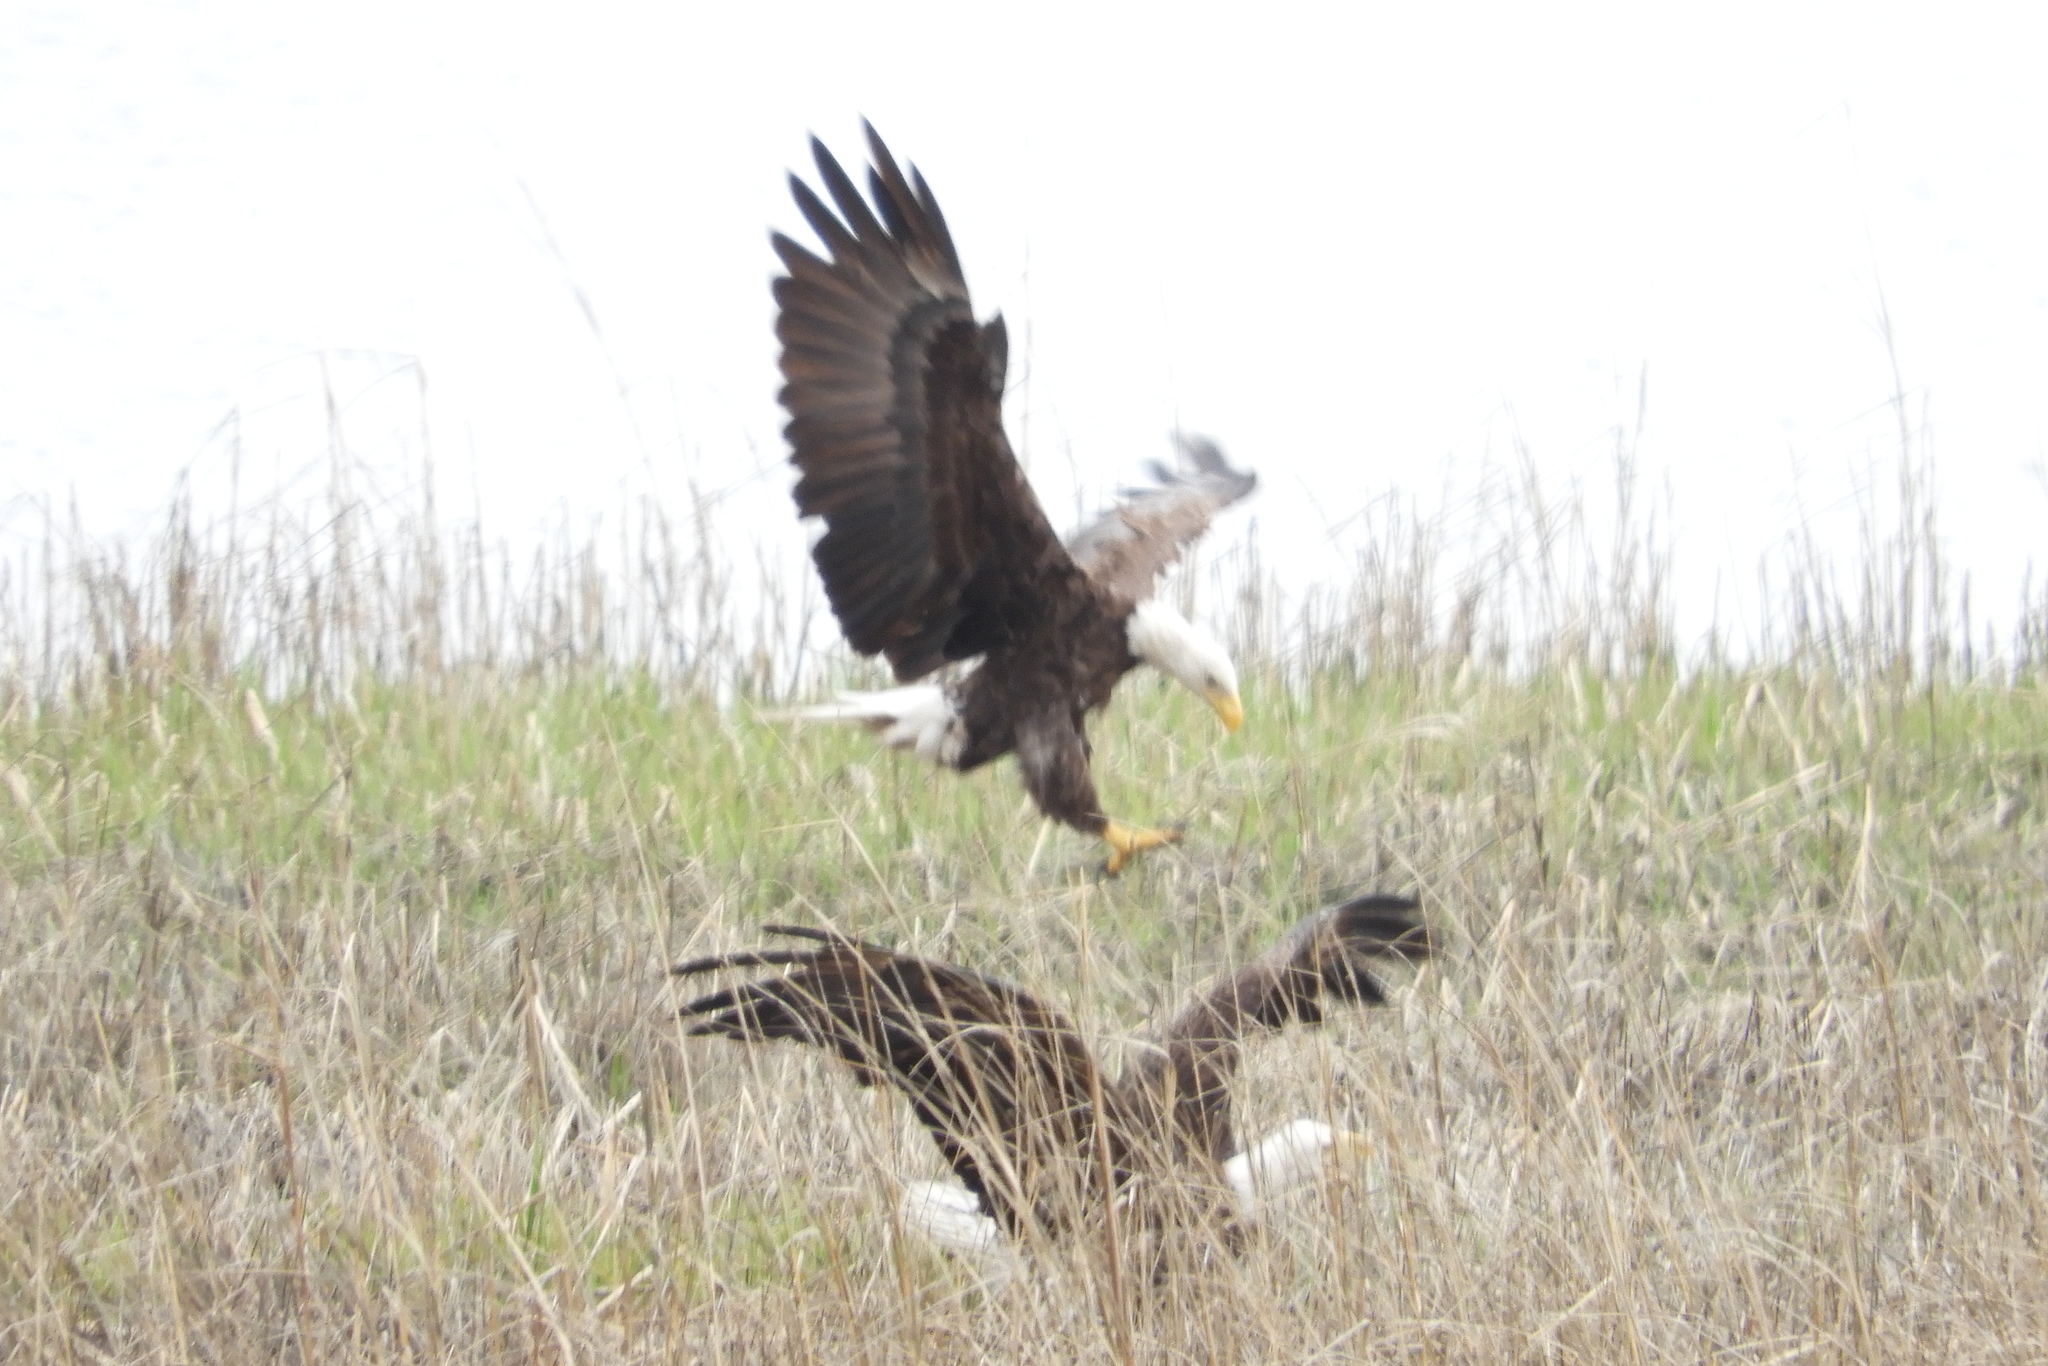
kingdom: Animalia
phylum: Chordata
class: Aves
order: Accipitriformes
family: Accipitridae
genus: Haliaeetus
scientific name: Haliaeetus leucocephalus
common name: Bald eagle
